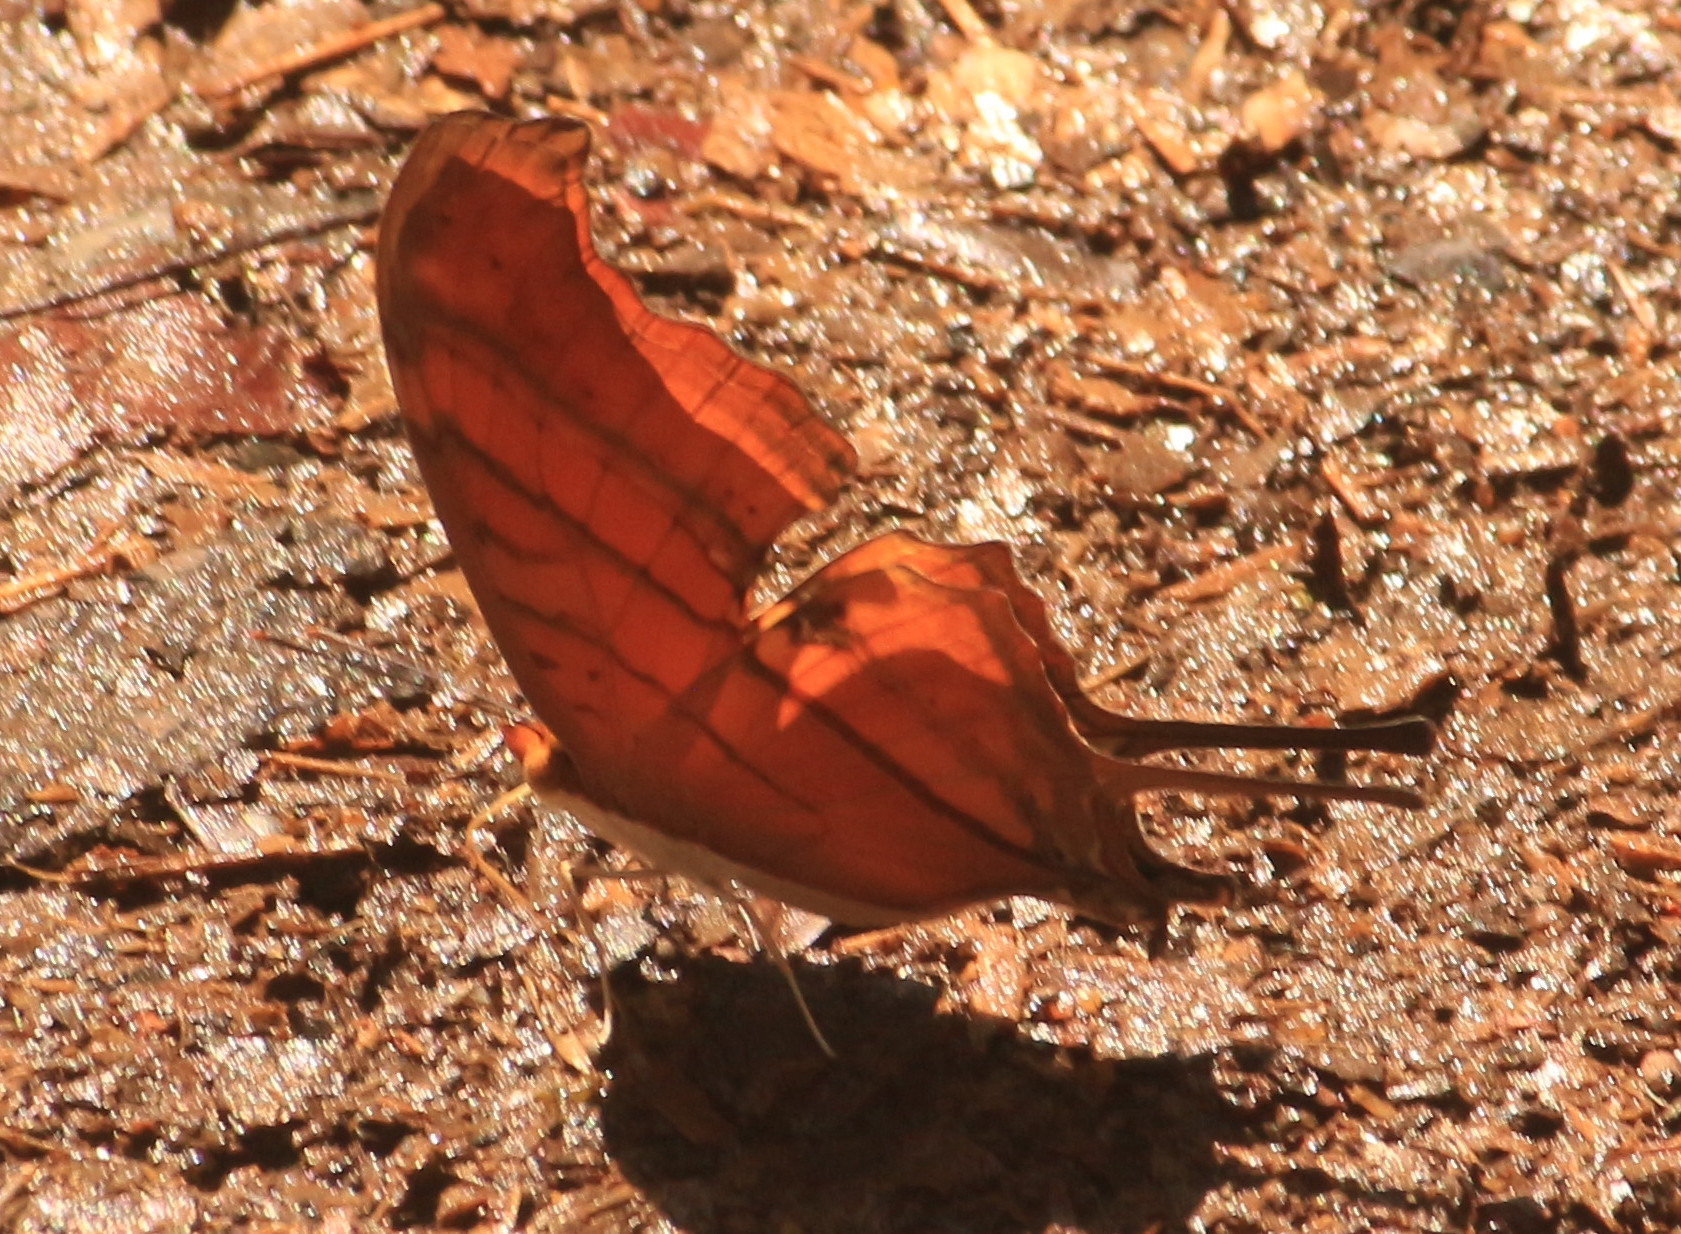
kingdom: Animalia
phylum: Arthropoda
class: Insecta
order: Lepidoptera
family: Nymphalidae
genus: Marpesia
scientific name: Marpesia petreus
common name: Red dagger wing
